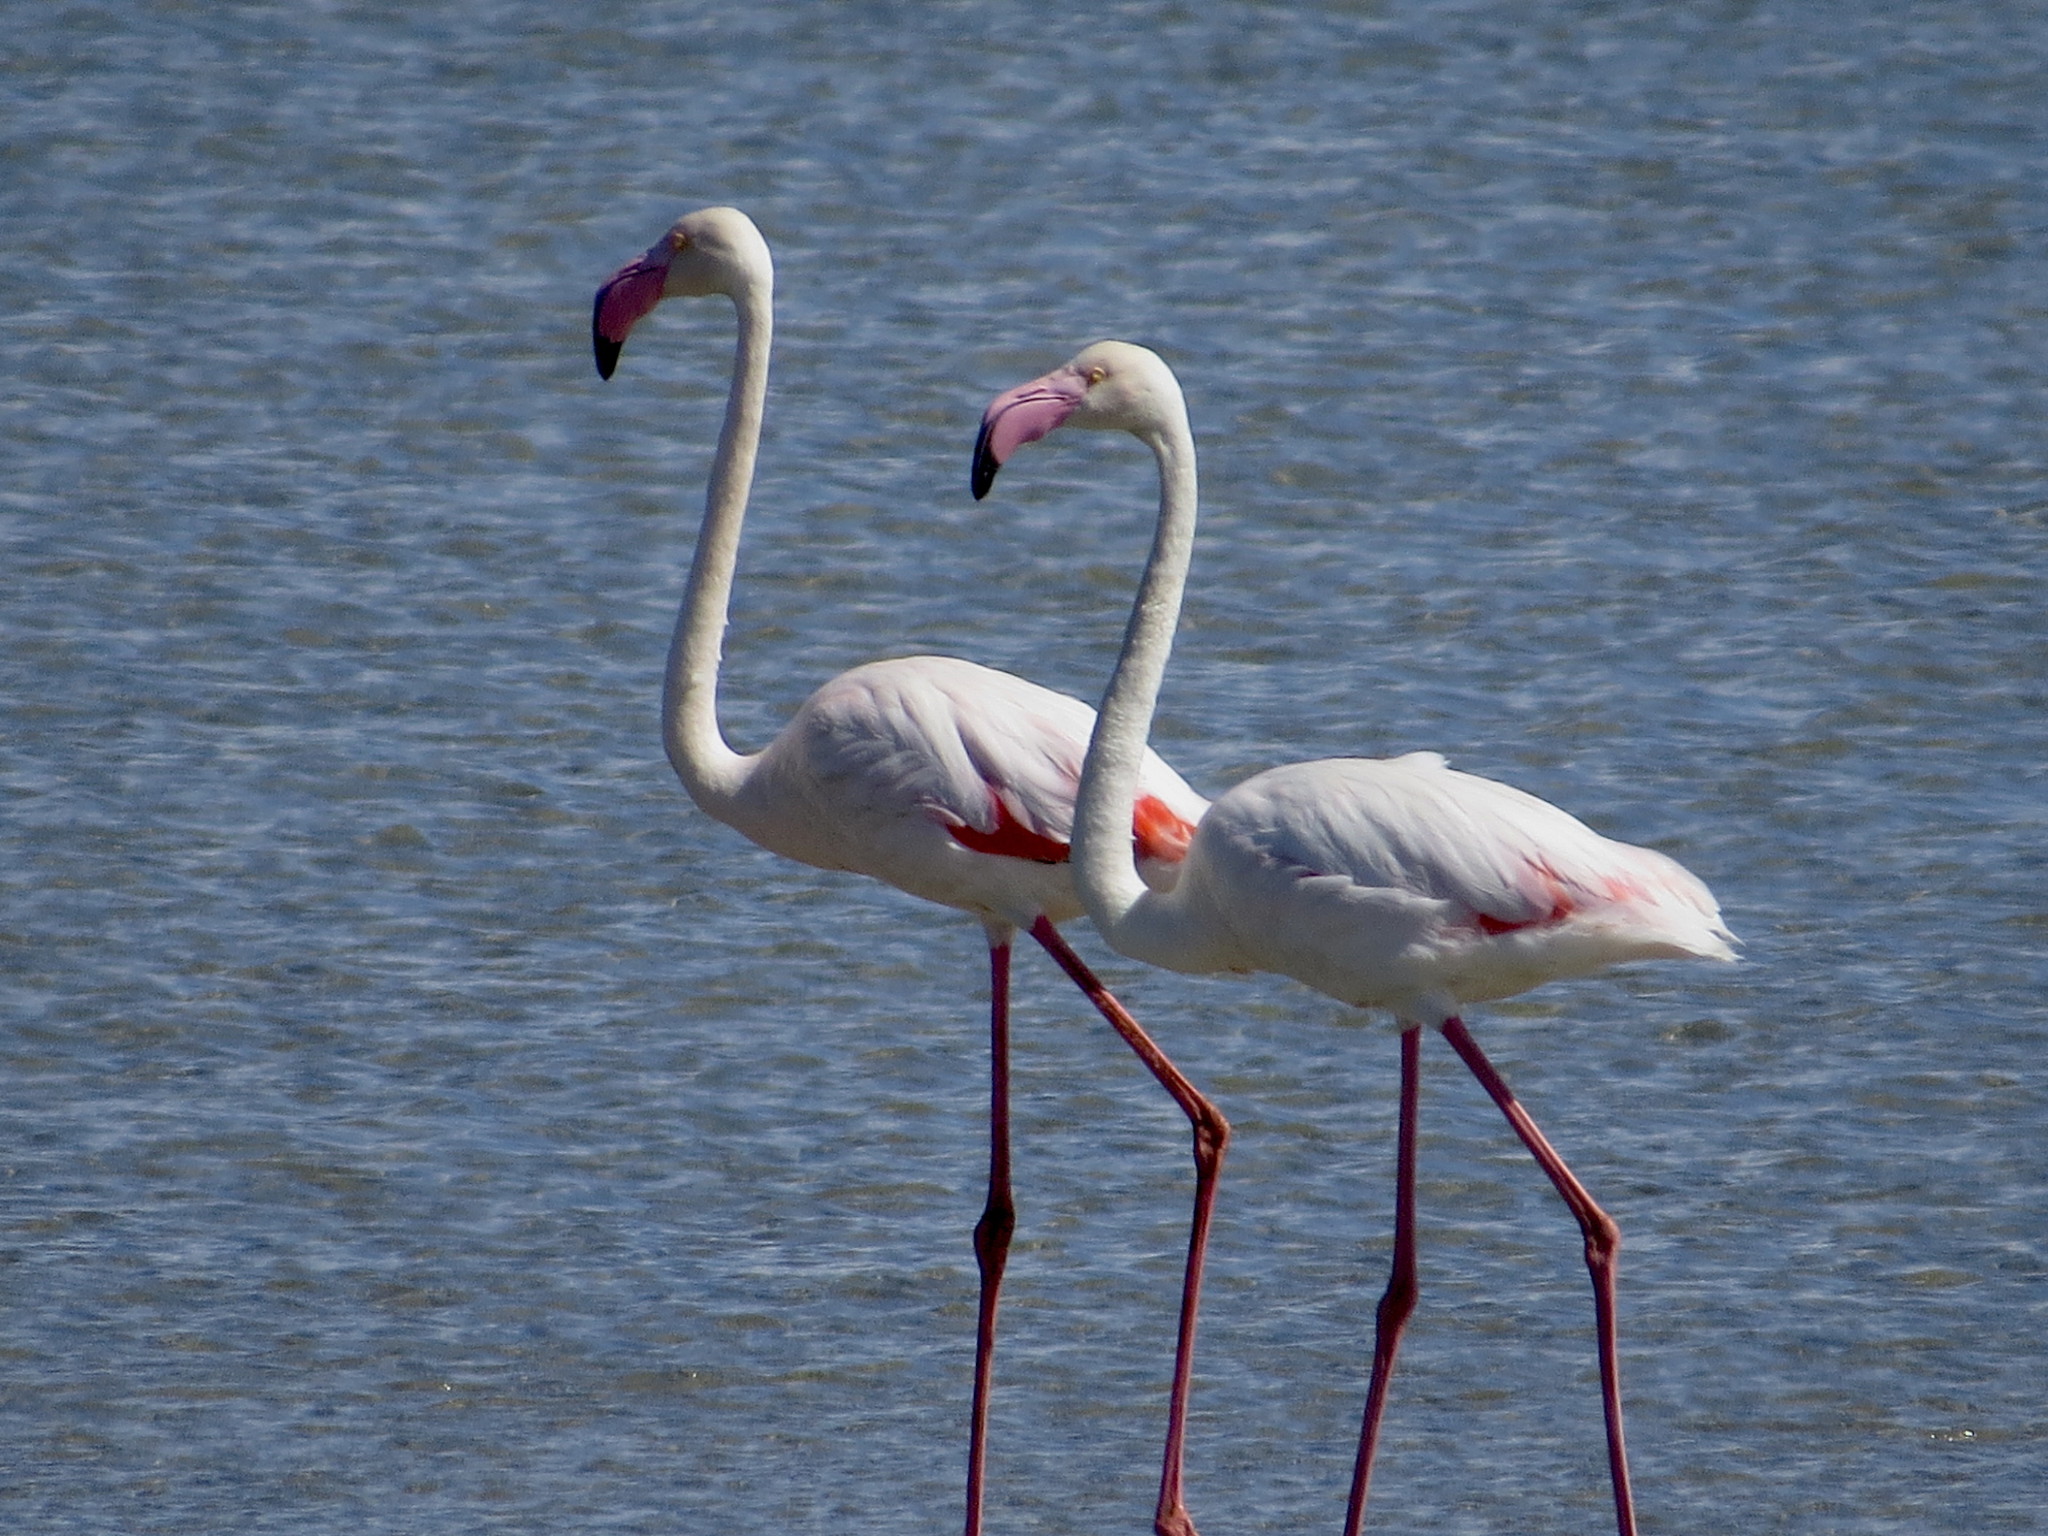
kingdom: Animalia
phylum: Chordata
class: Aves
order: Phoenicopteriformes
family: Phoenicopteridae
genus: Phoenicopterus
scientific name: Phoenicopterus roseus
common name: Greater flamingo
